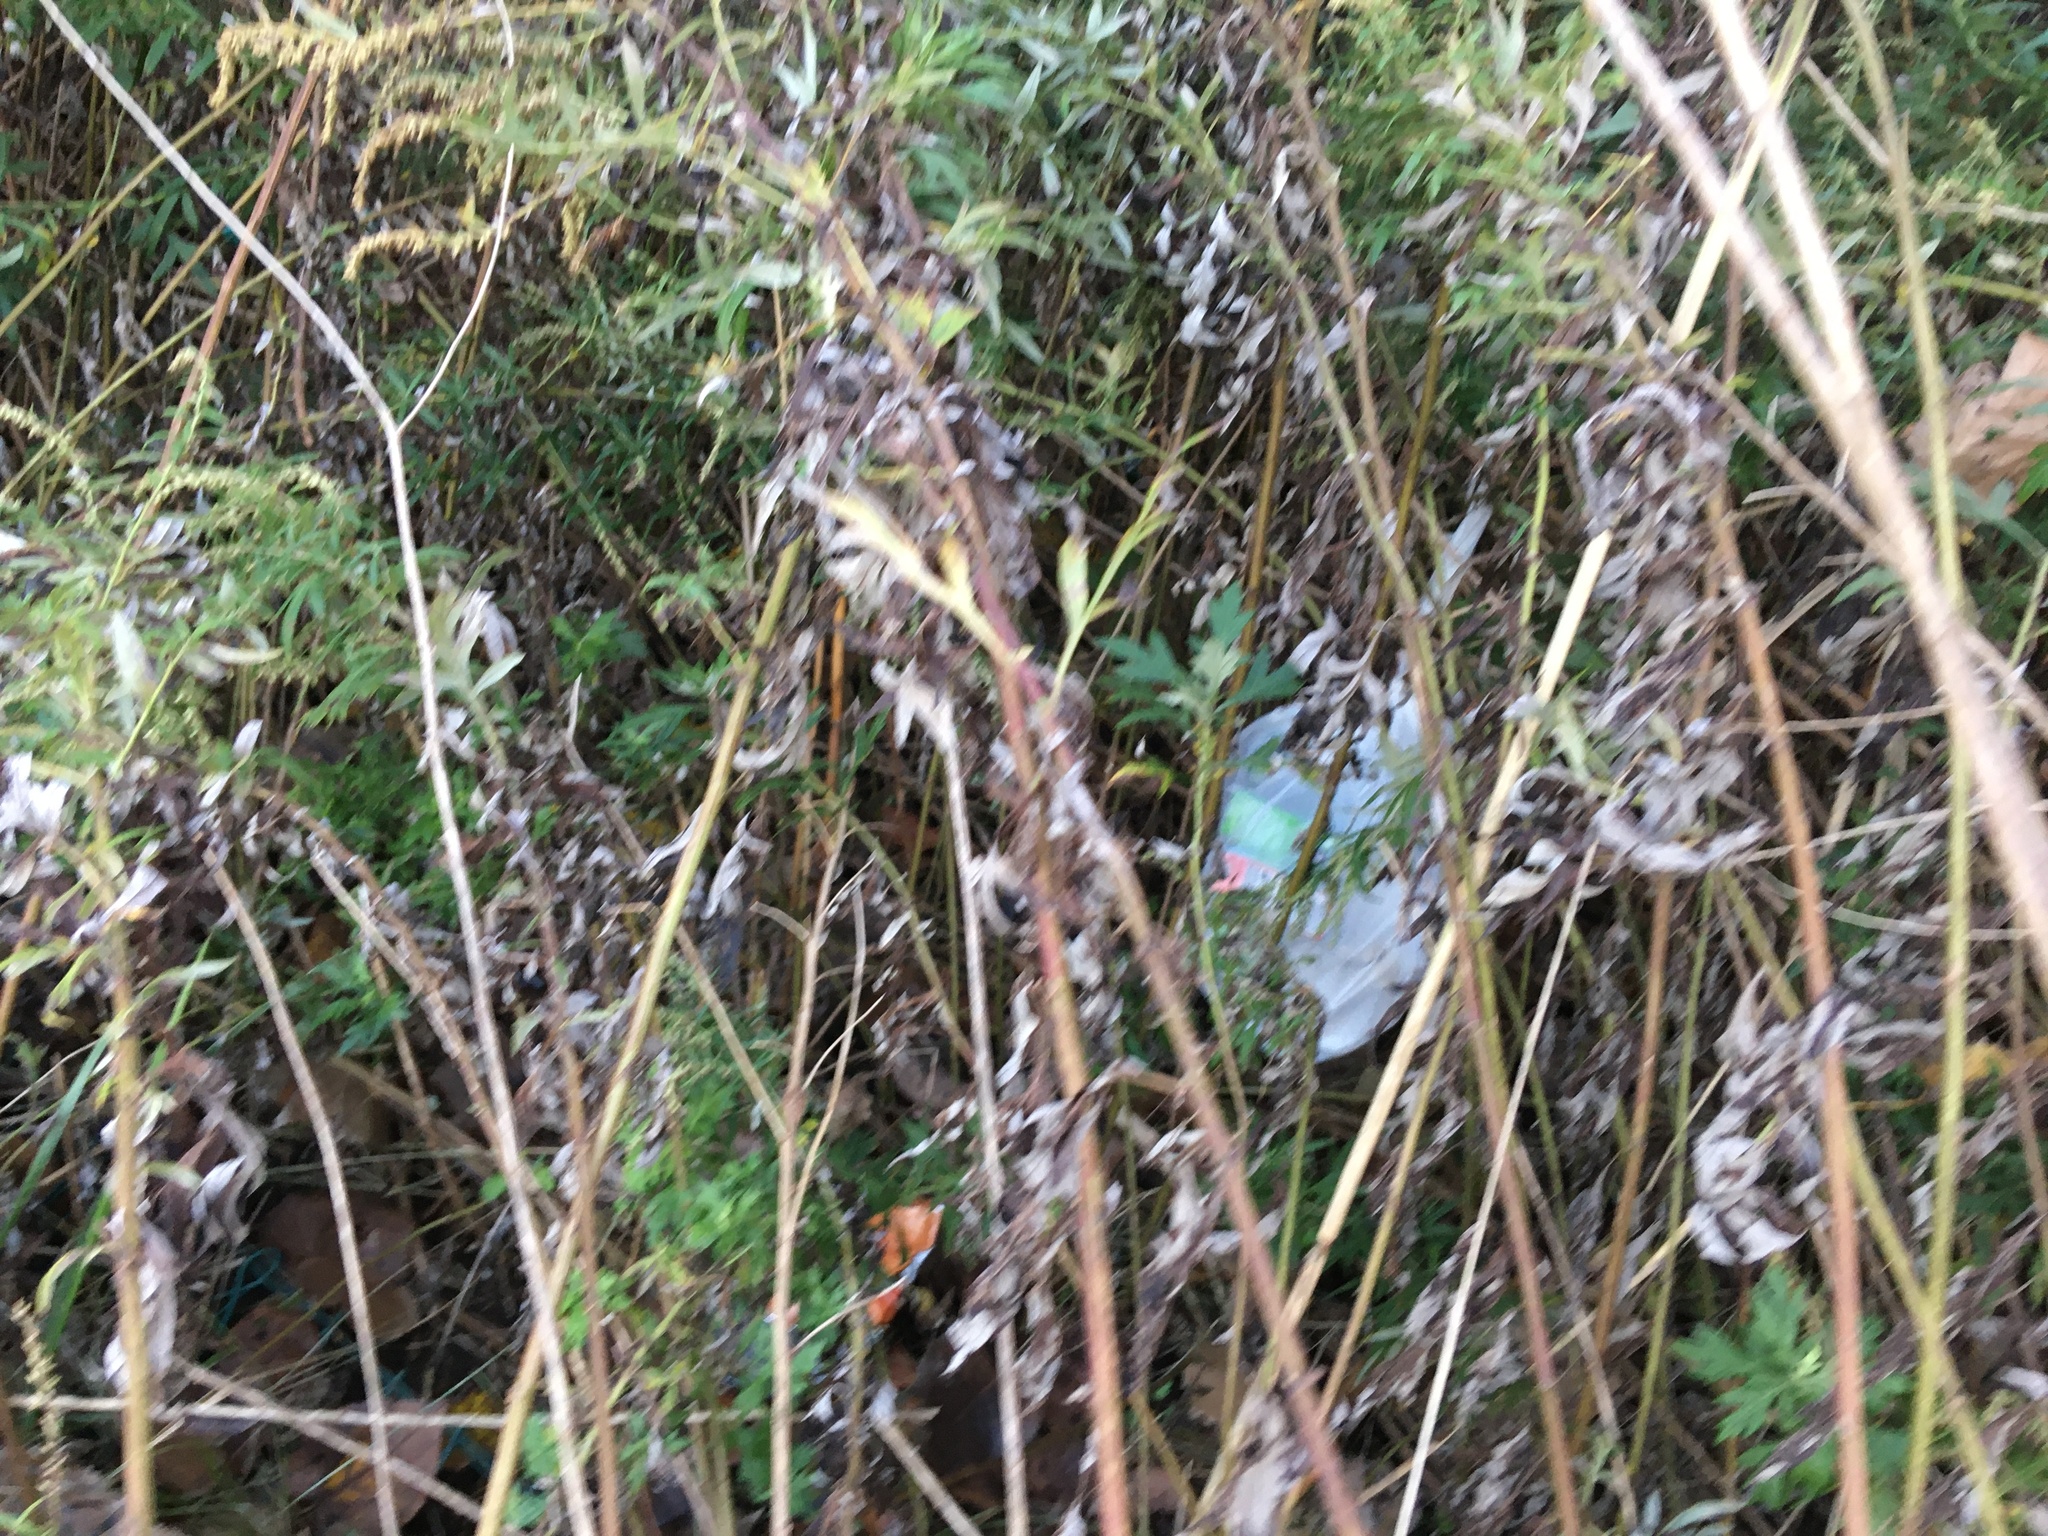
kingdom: Plantae
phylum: Tracheophyta
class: Magnoliopsida
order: Asterales
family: Asteraceae
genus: Artemisia
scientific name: Artemisia vulgaris
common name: Mugwort
